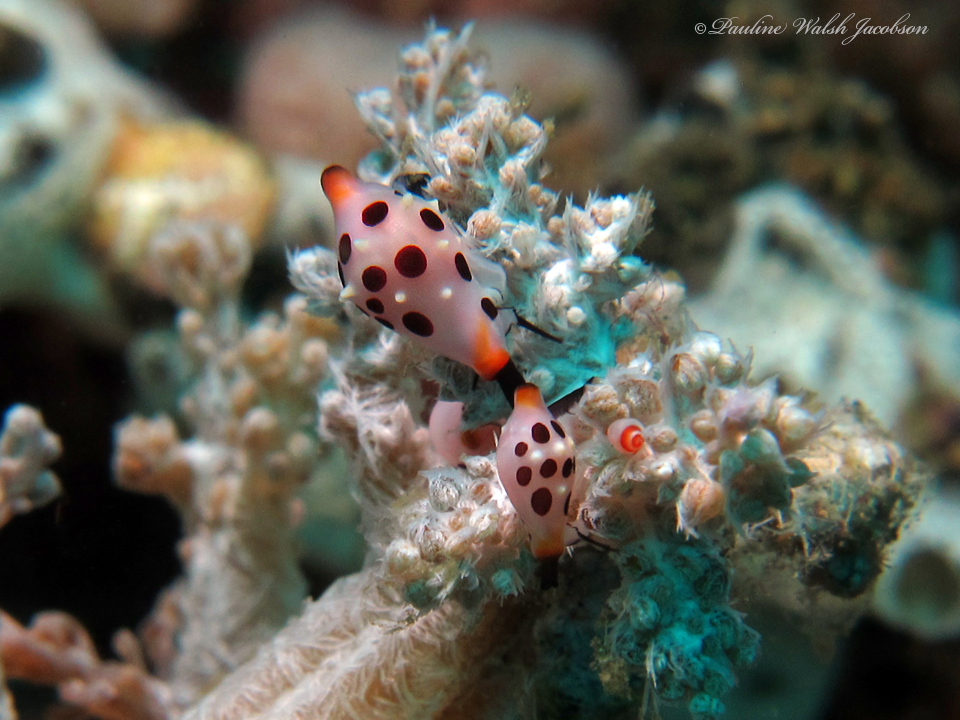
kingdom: Animalia
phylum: Mollusca
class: Gastropoda
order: Littorinimorpha
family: Ovulidae
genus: Primovula
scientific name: Primovula rosewateri
